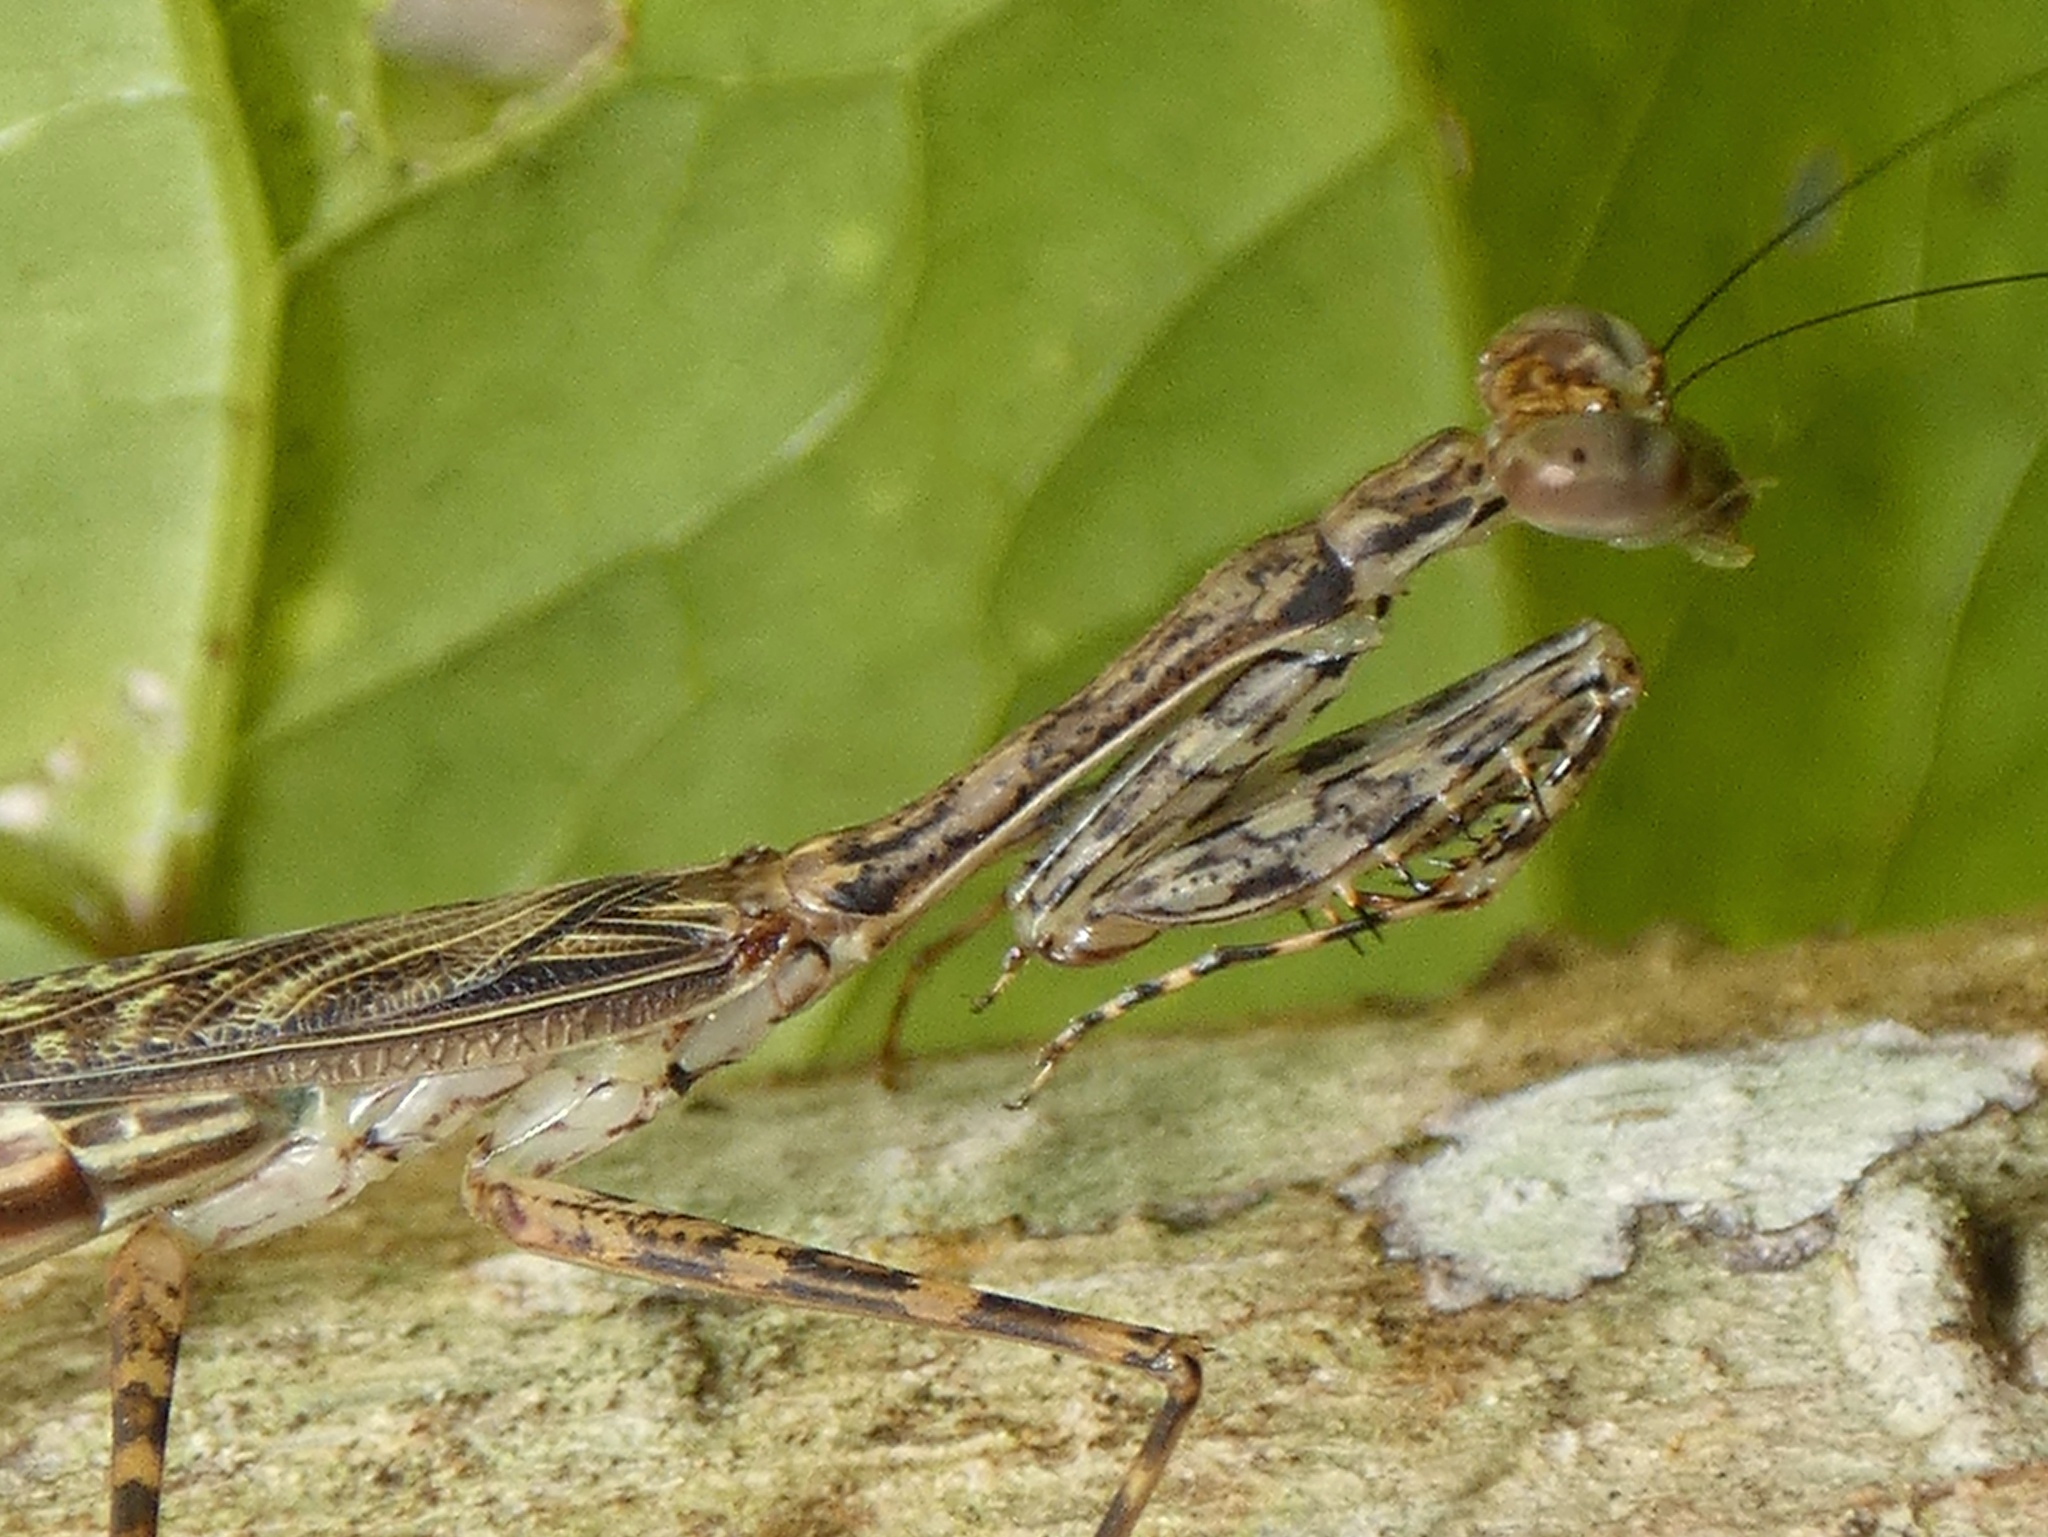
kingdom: Animalia
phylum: Arthropoda
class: Insecta
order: Mantodea
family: Nanomantidae
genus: Ciulfina
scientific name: Ciulfina rentzi
